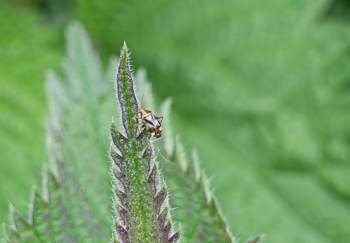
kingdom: Animalia
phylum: Arthropoda
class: Insecta
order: Hemiptera
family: Miridae
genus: Liocoris
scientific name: Liocoris tripustulatus
